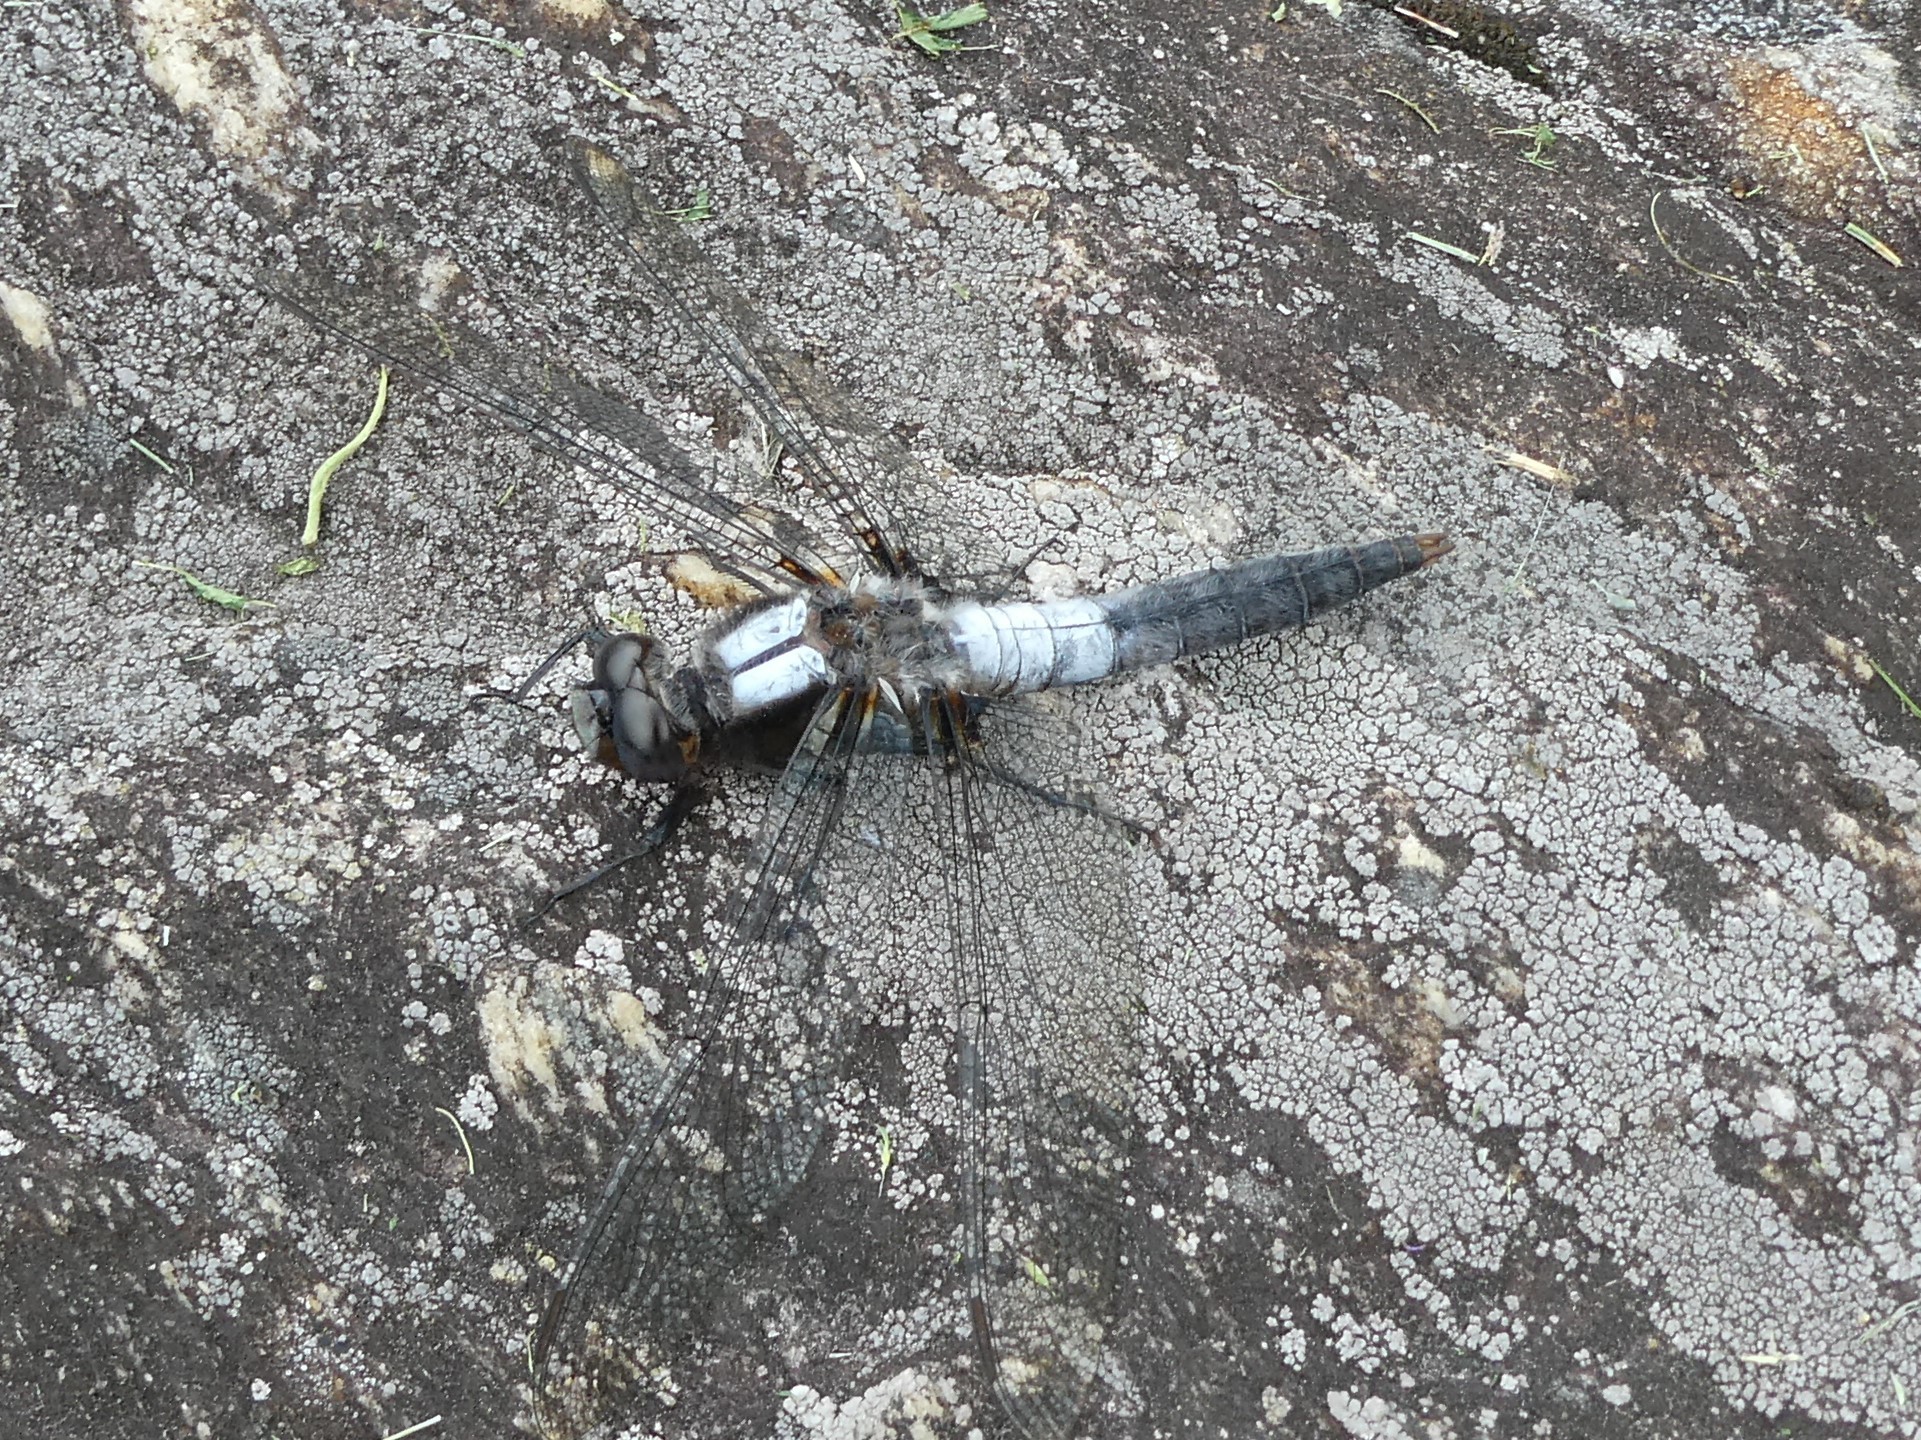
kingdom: Animalia
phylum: Arthropoda
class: Insecta
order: Odonata
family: Libellulidae
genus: Ladona
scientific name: Ladona julia
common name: Chalk-fronted corporal
